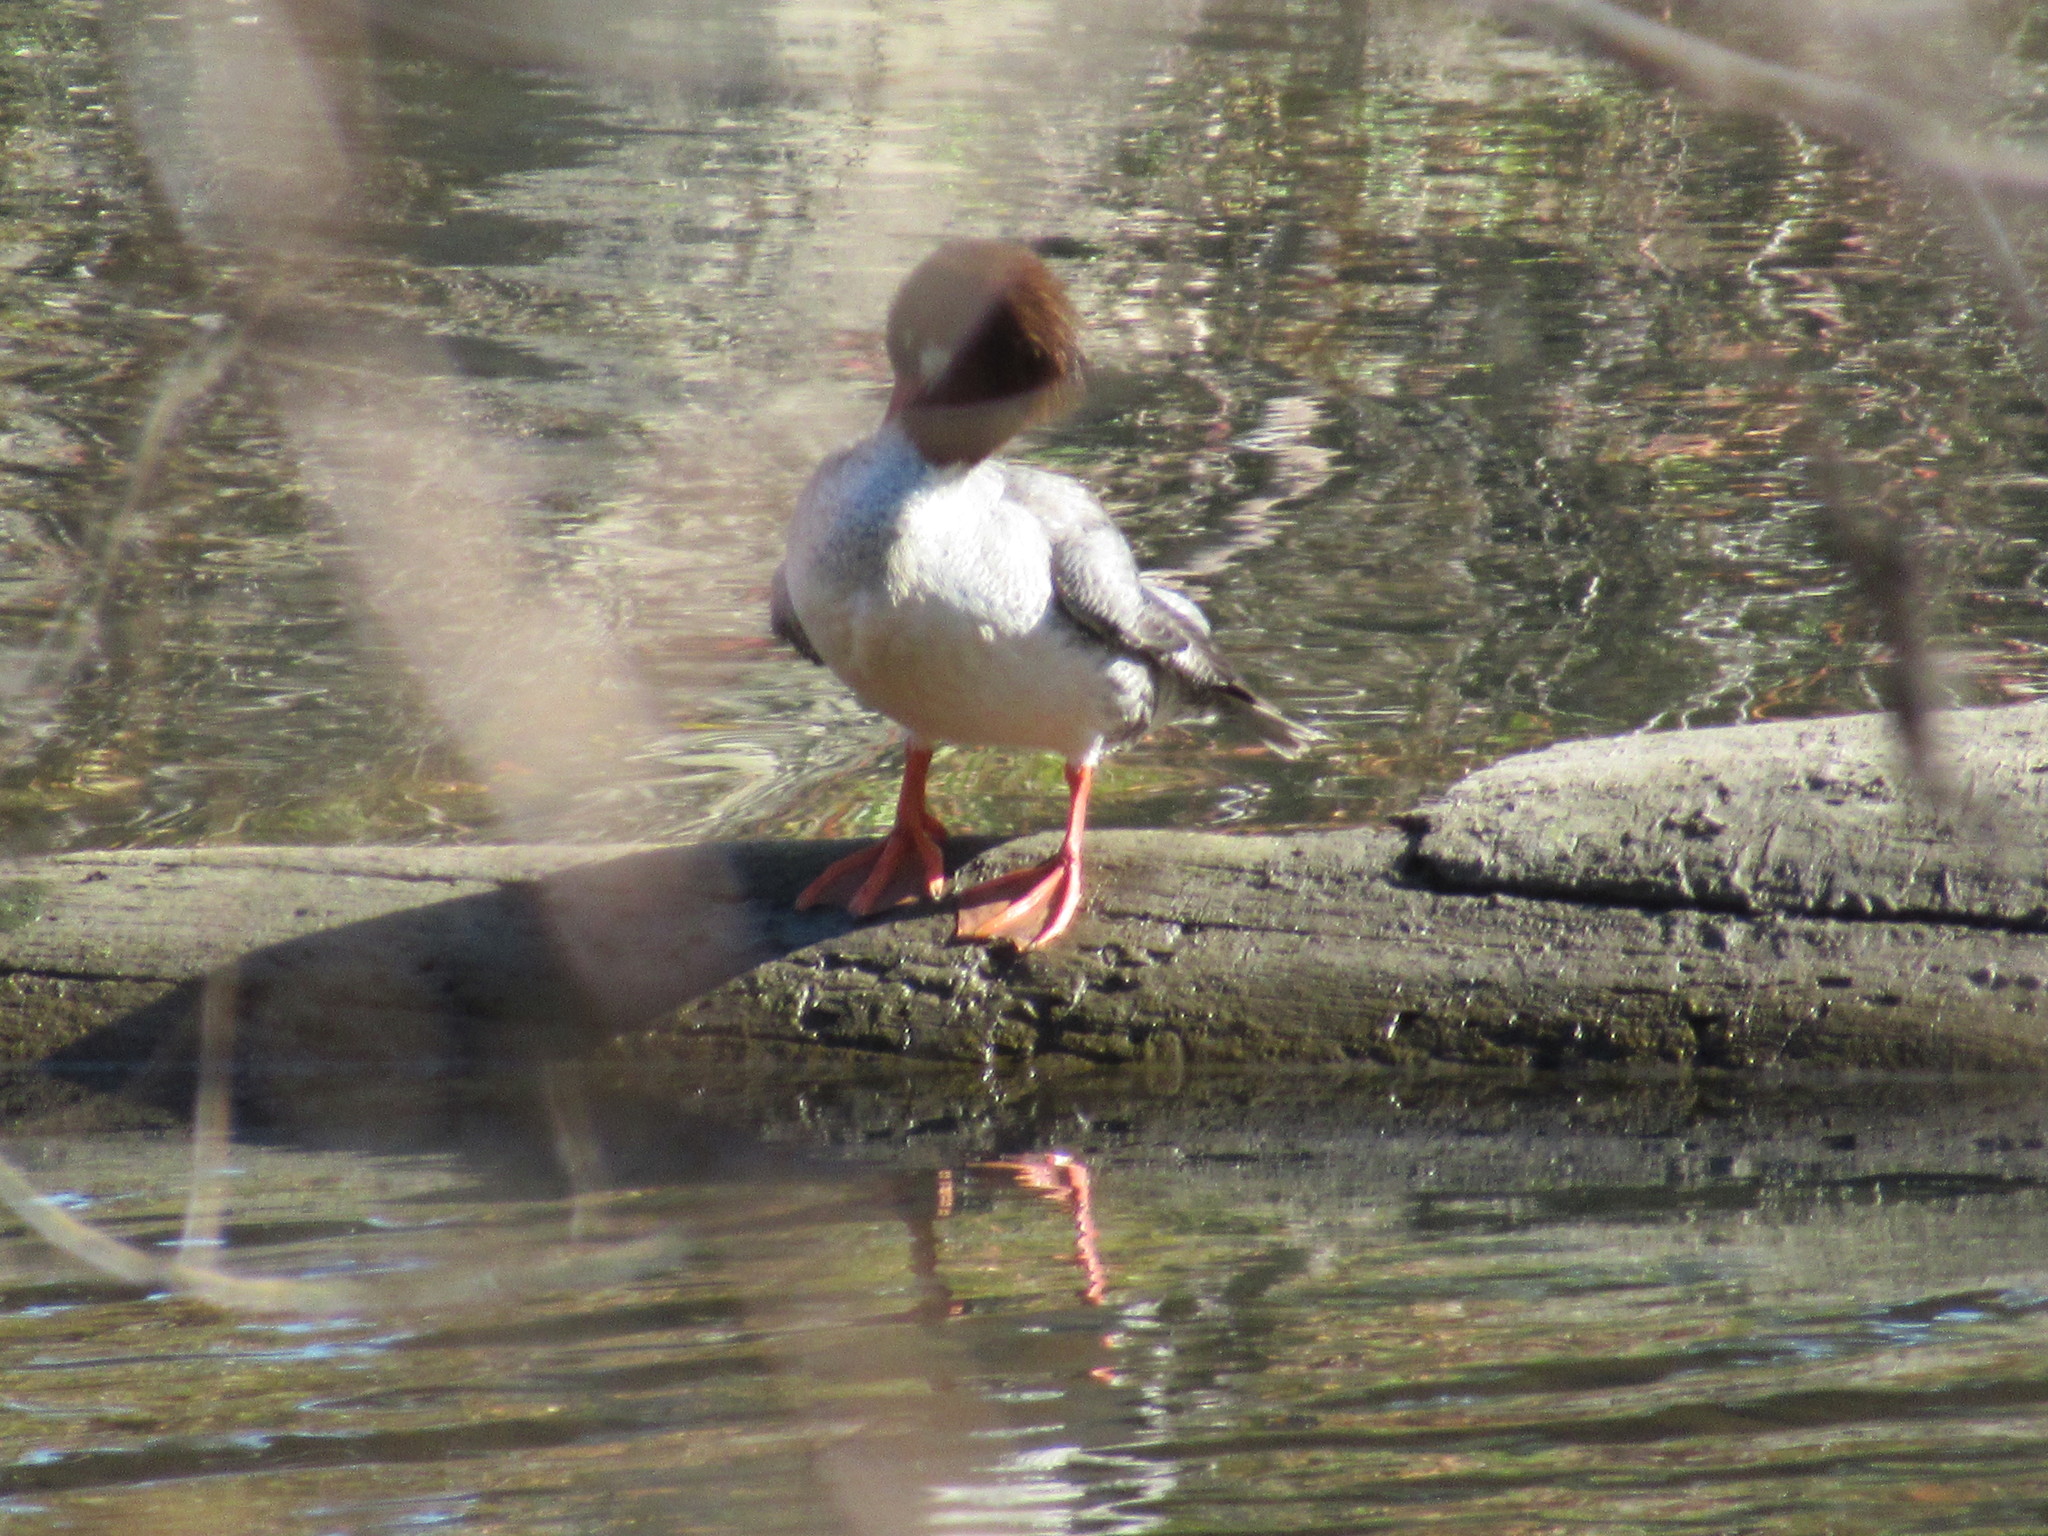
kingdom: Animalia
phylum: Chordata
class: Aves
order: Anseriformes
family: Anatidae
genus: Mergus
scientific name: Mergus merganser
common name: Common merganser
